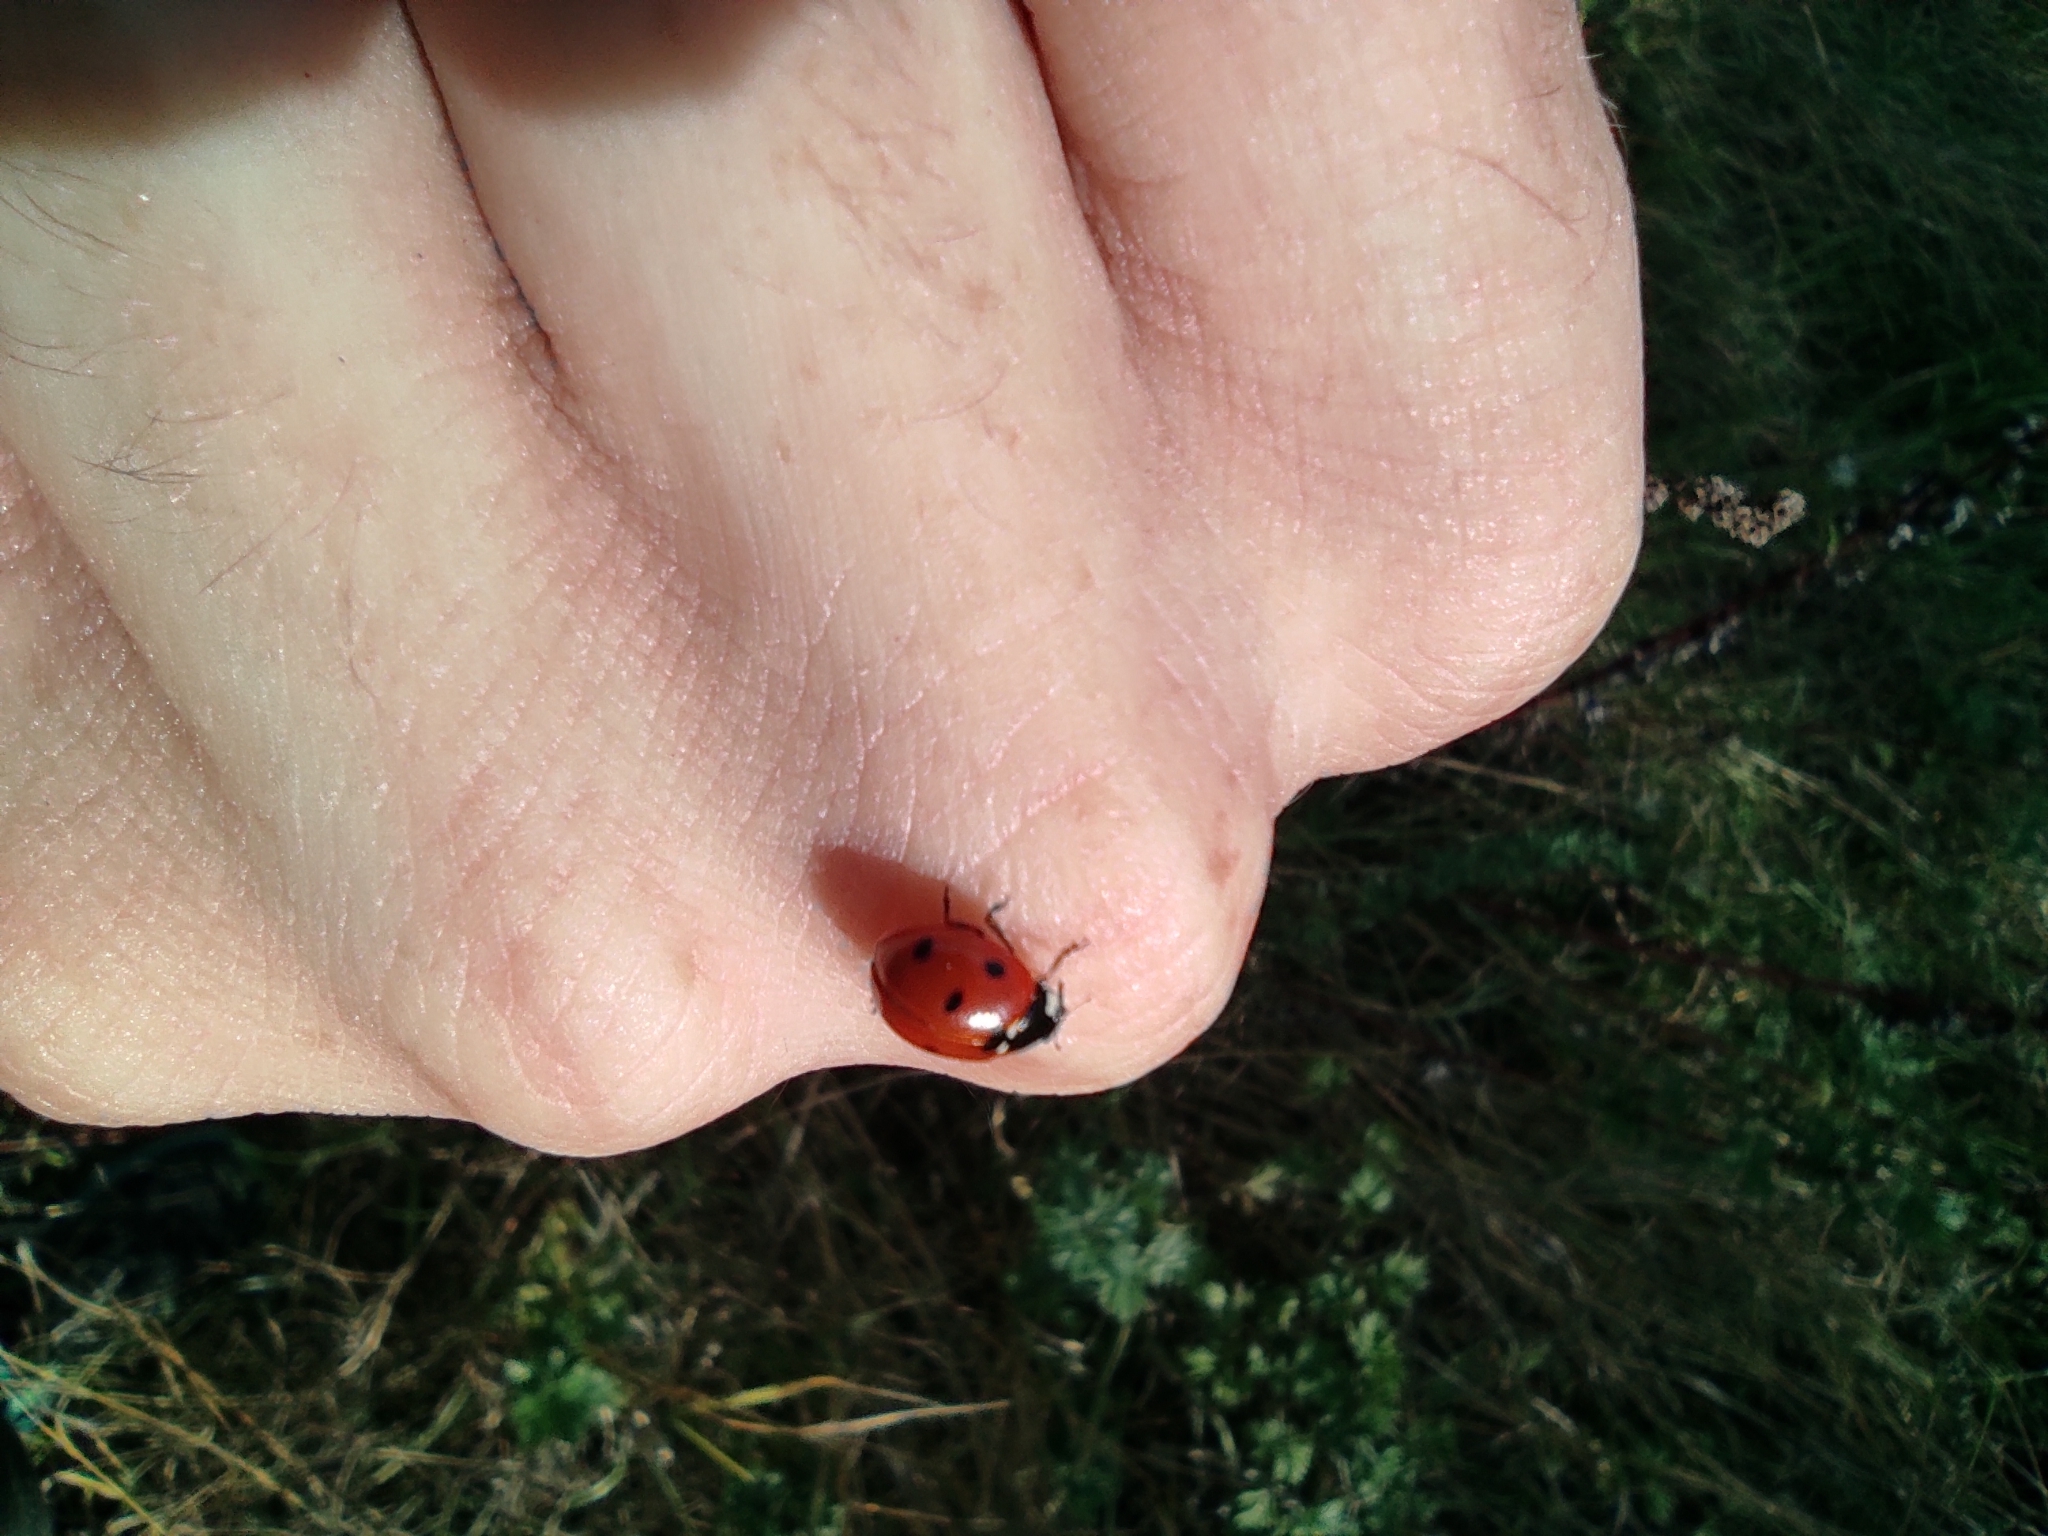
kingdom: Animalia
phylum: Arthropoda
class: Insecta
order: Coleoptera
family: Coccinellidae
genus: Coccinella
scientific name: Coccinella septempunctata
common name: Sevenspotted lady beetle
